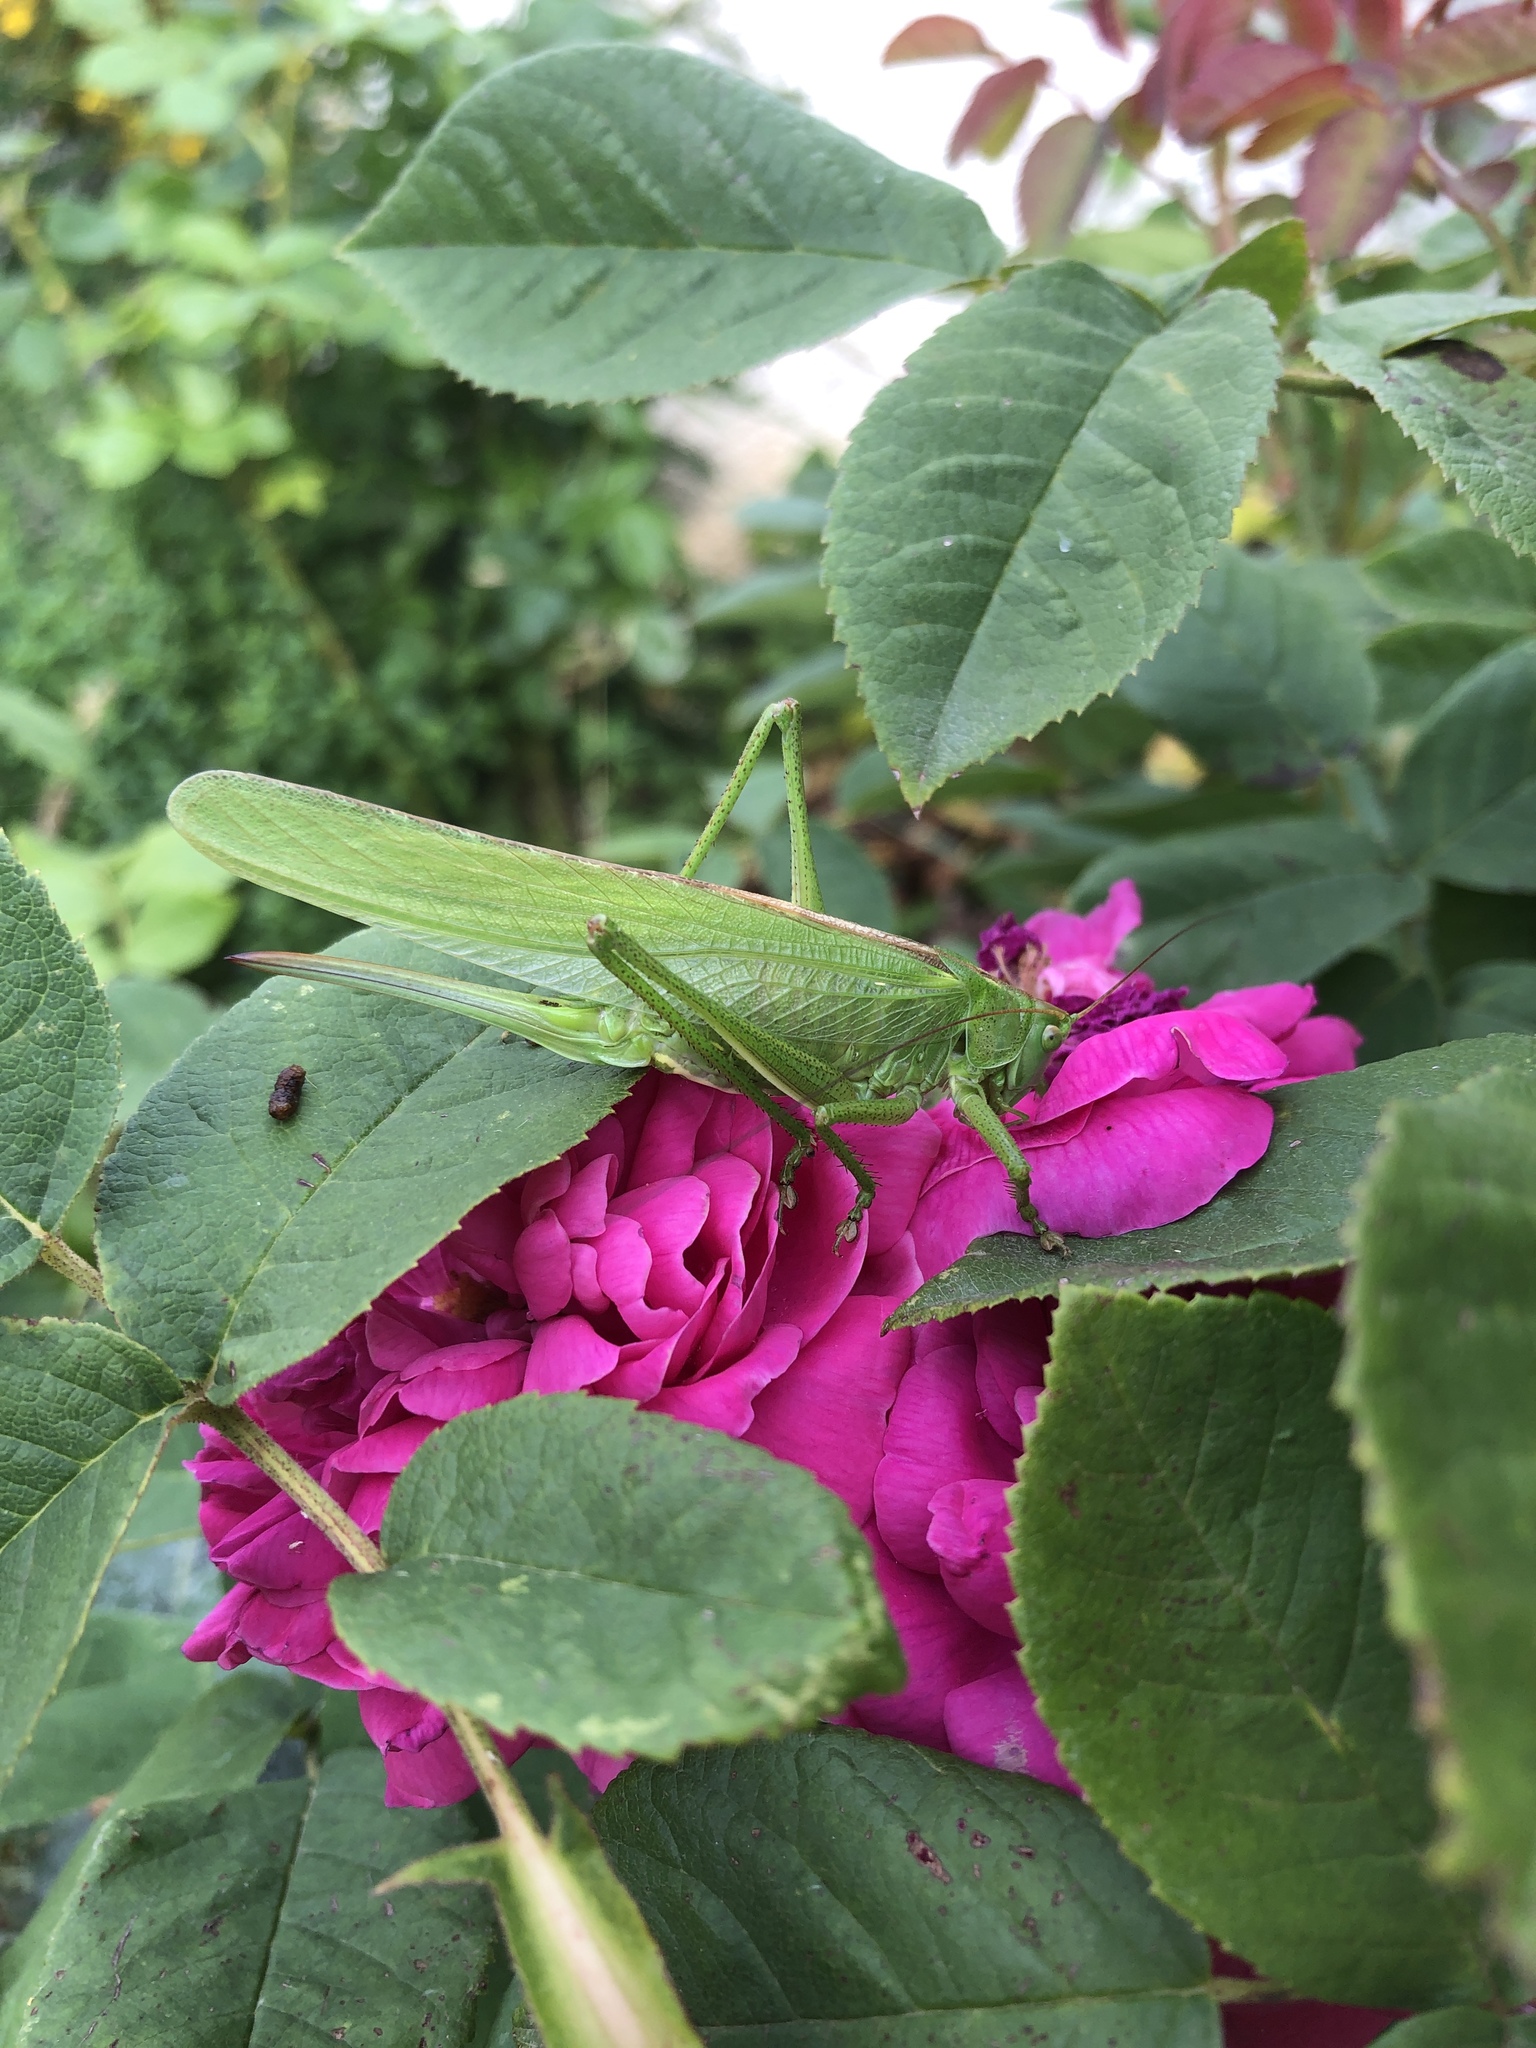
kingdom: Animalia
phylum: Arthropoda
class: Insecta
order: Orthoptera
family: Tettigoniidae
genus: Tettigonia
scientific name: Tettigonia viridissima
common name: Great green bush-cricket
